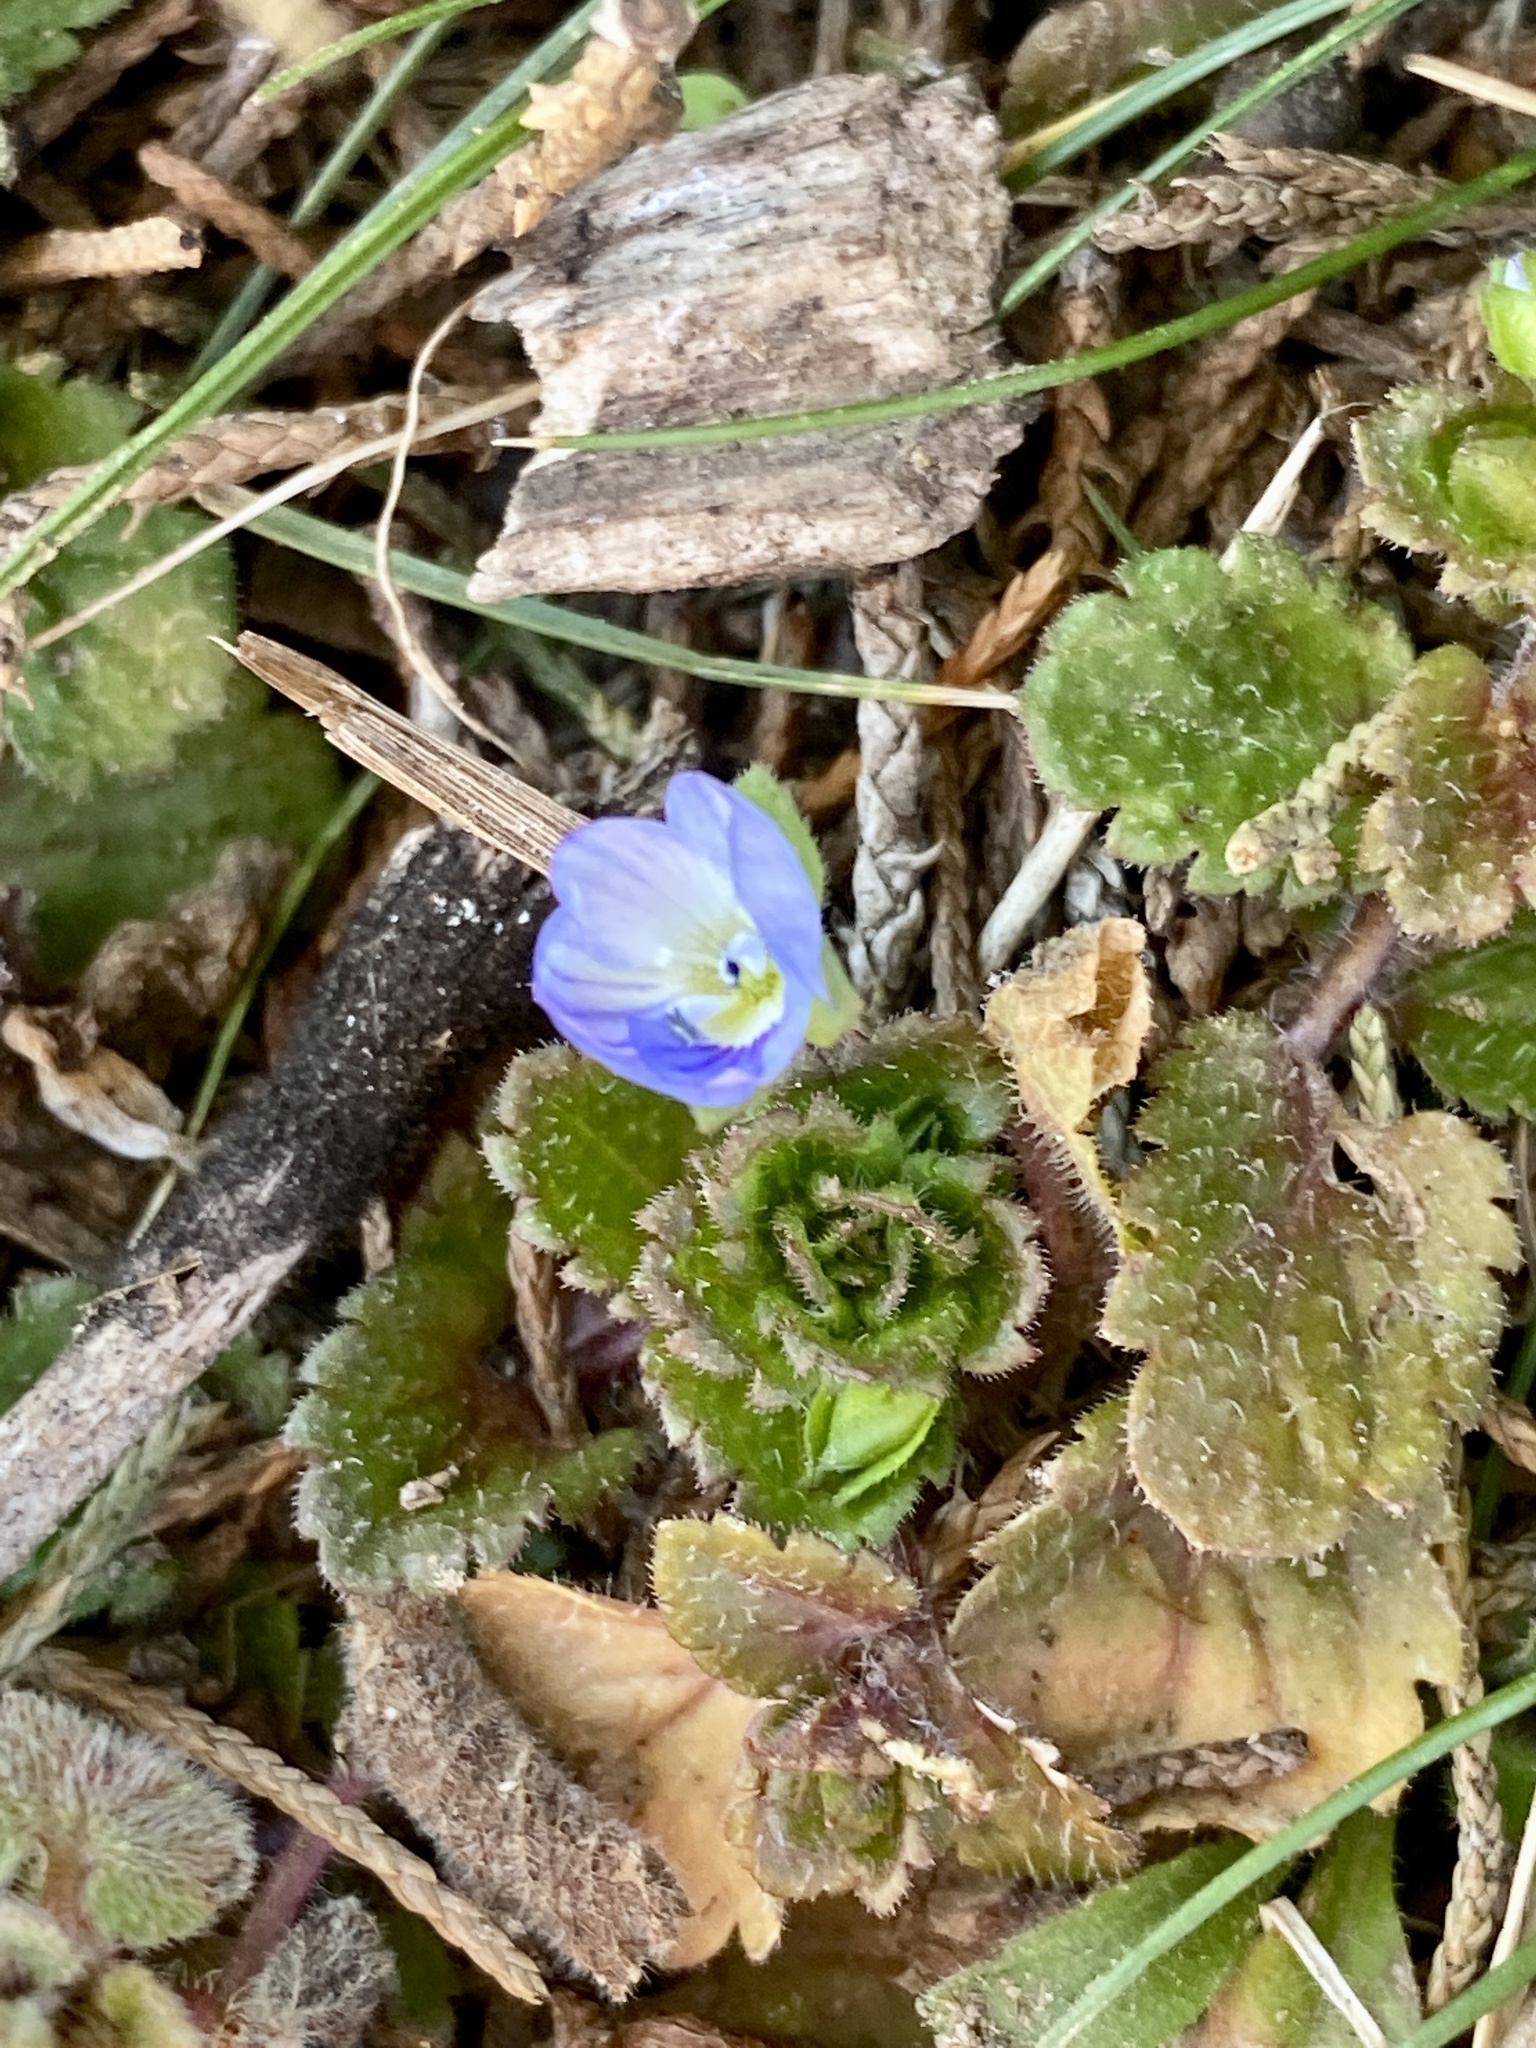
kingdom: Plantae
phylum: Tracheophyta
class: Magnoliopsida
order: Lamiales
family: Plantaginaceae
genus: Veronica
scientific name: Veronica persica
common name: Common field-speedwell
